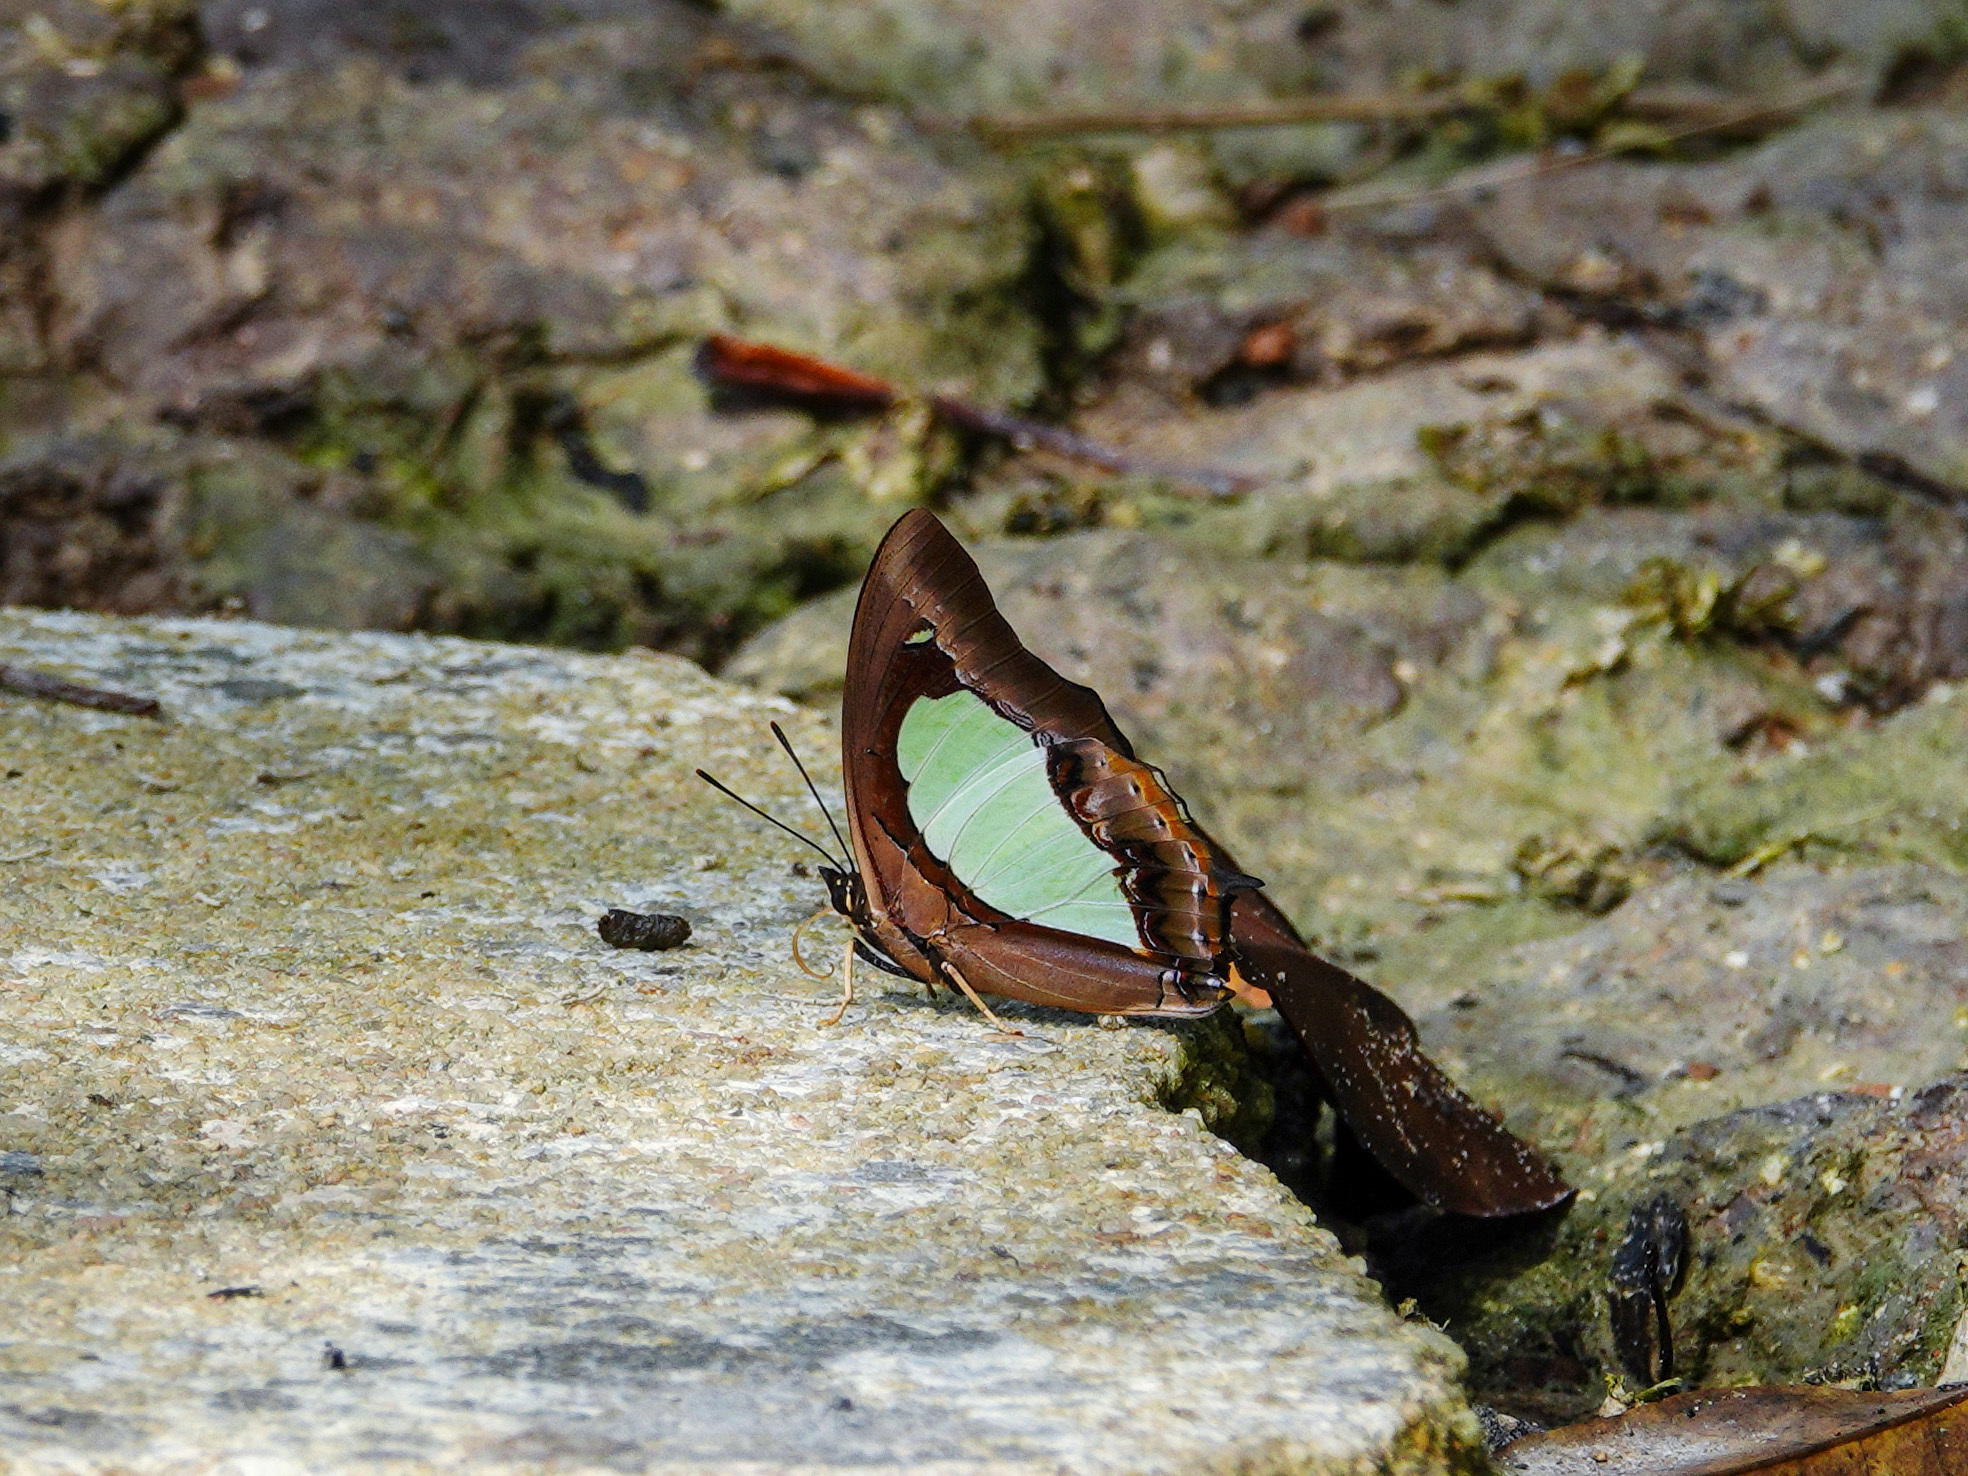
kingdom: Animalia
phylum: Arthropoda
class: Insecta
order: Lepidoptera
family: Nymphalidae
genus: Polyura
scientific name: Polyura moori
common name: Malayan nawab
